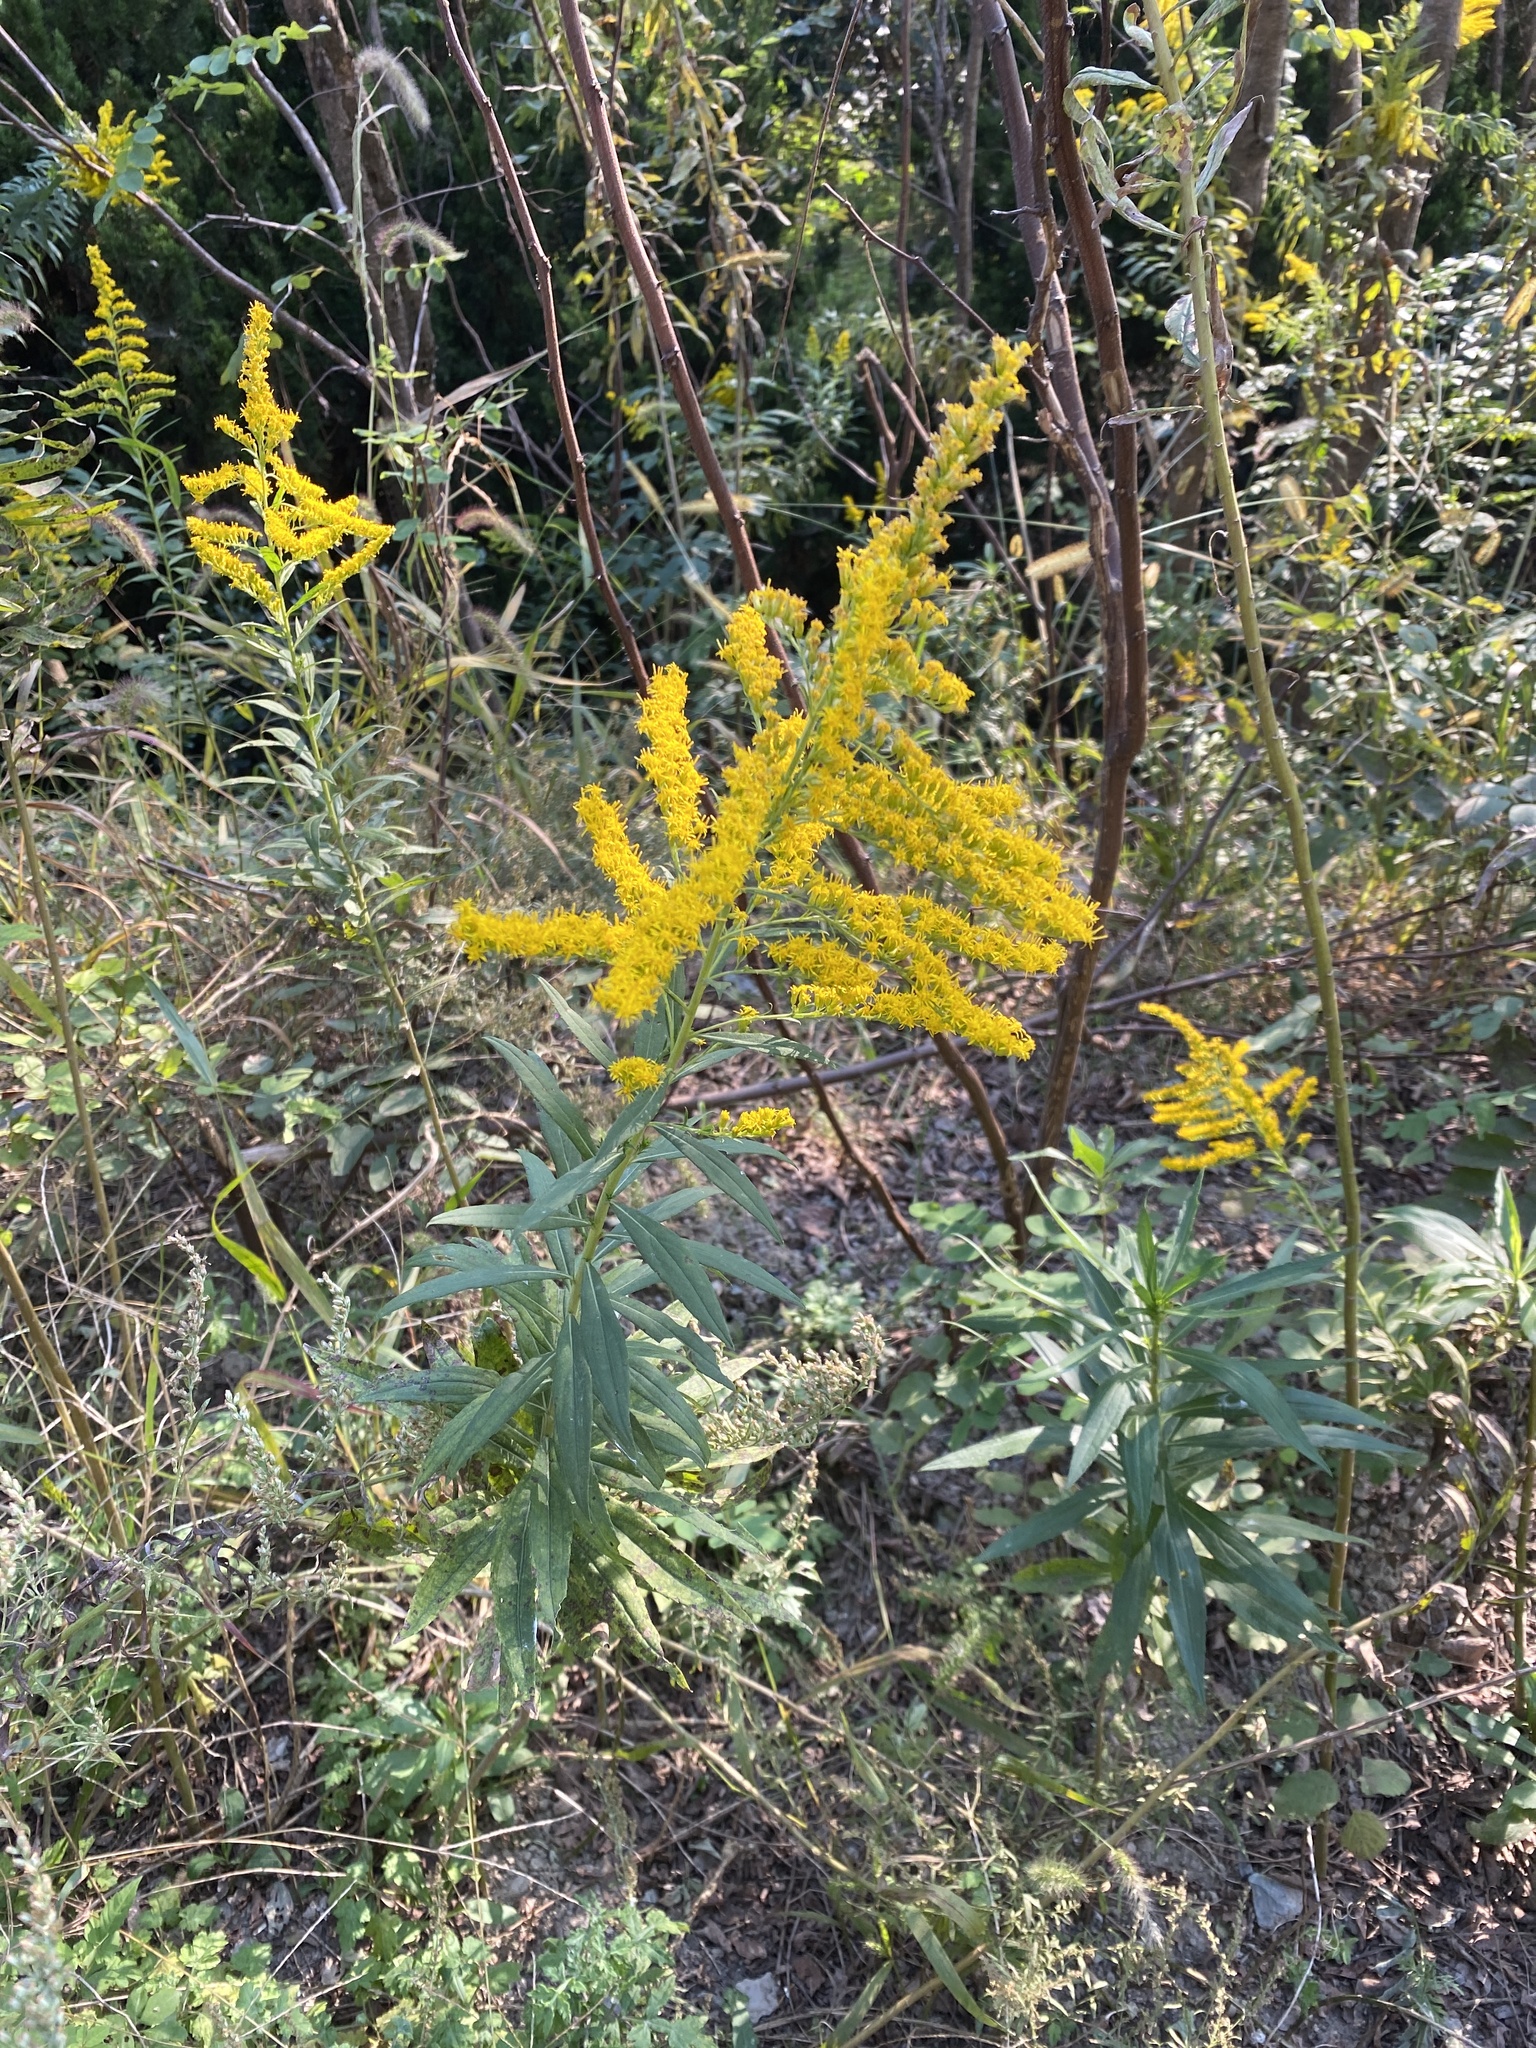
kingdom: Plantae
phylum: Tracheophyta
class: Magnoliopsida
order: Asterales
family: Asteraceae
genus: Solidago
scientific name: Solidago altissima
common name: Late goldenrod
